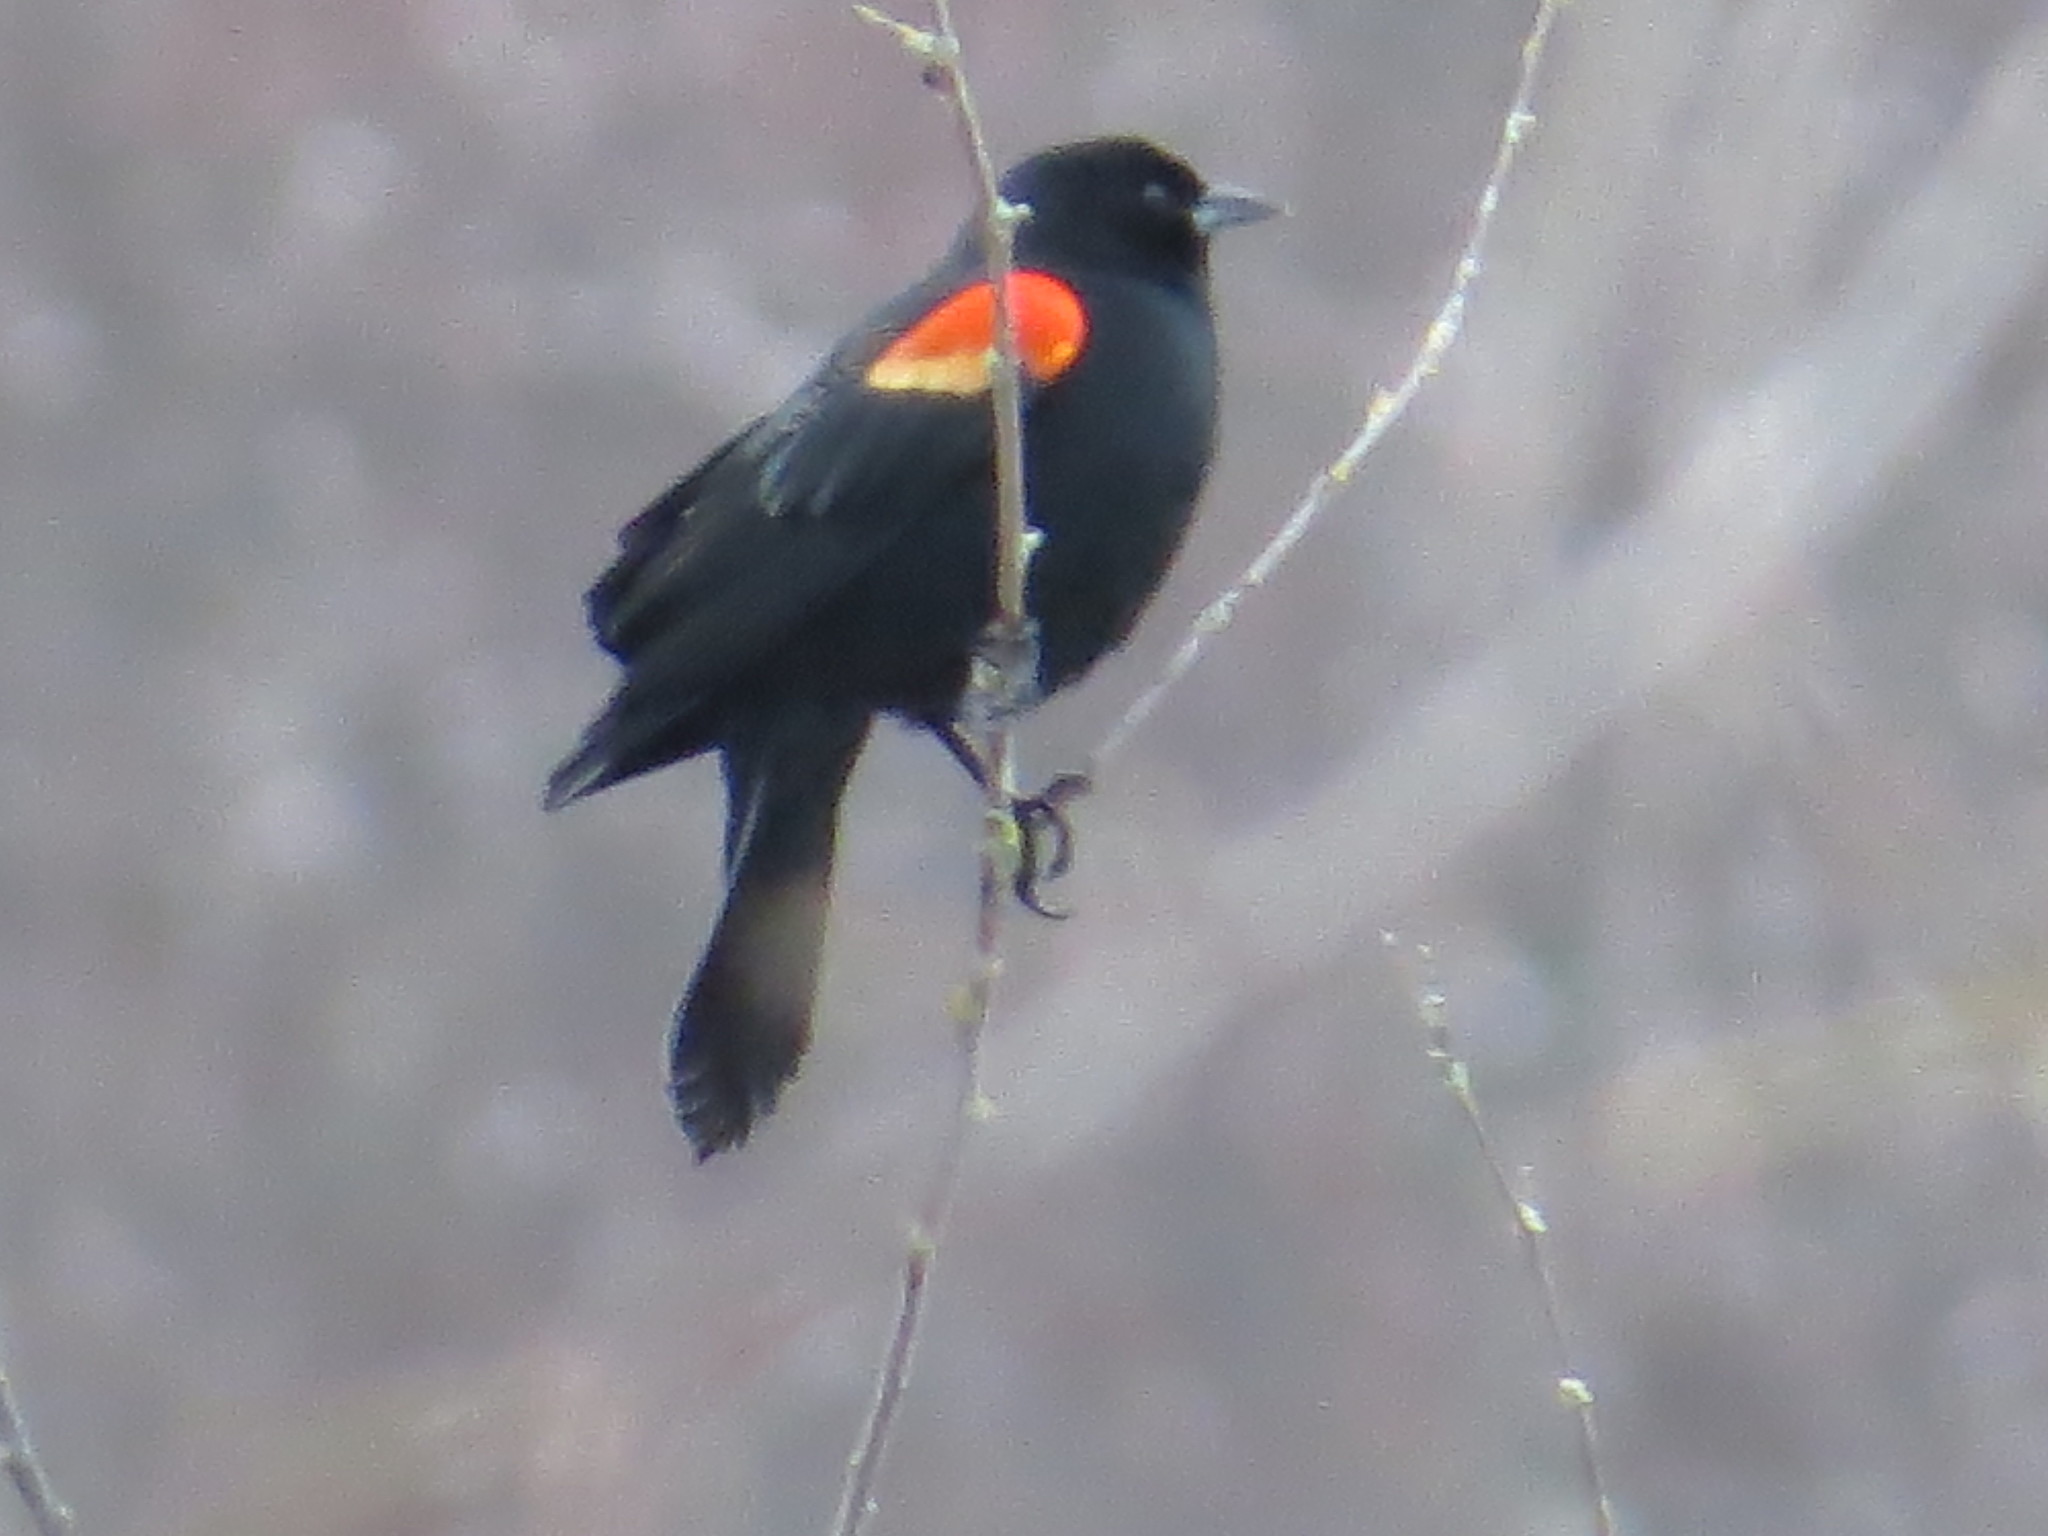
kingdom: Animalia
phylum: Chordata
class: Aves
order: Passeriformes
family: Icteridae
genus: Agelaius
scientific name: Agelaius phoeniceus
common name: Red-winged blackbird
